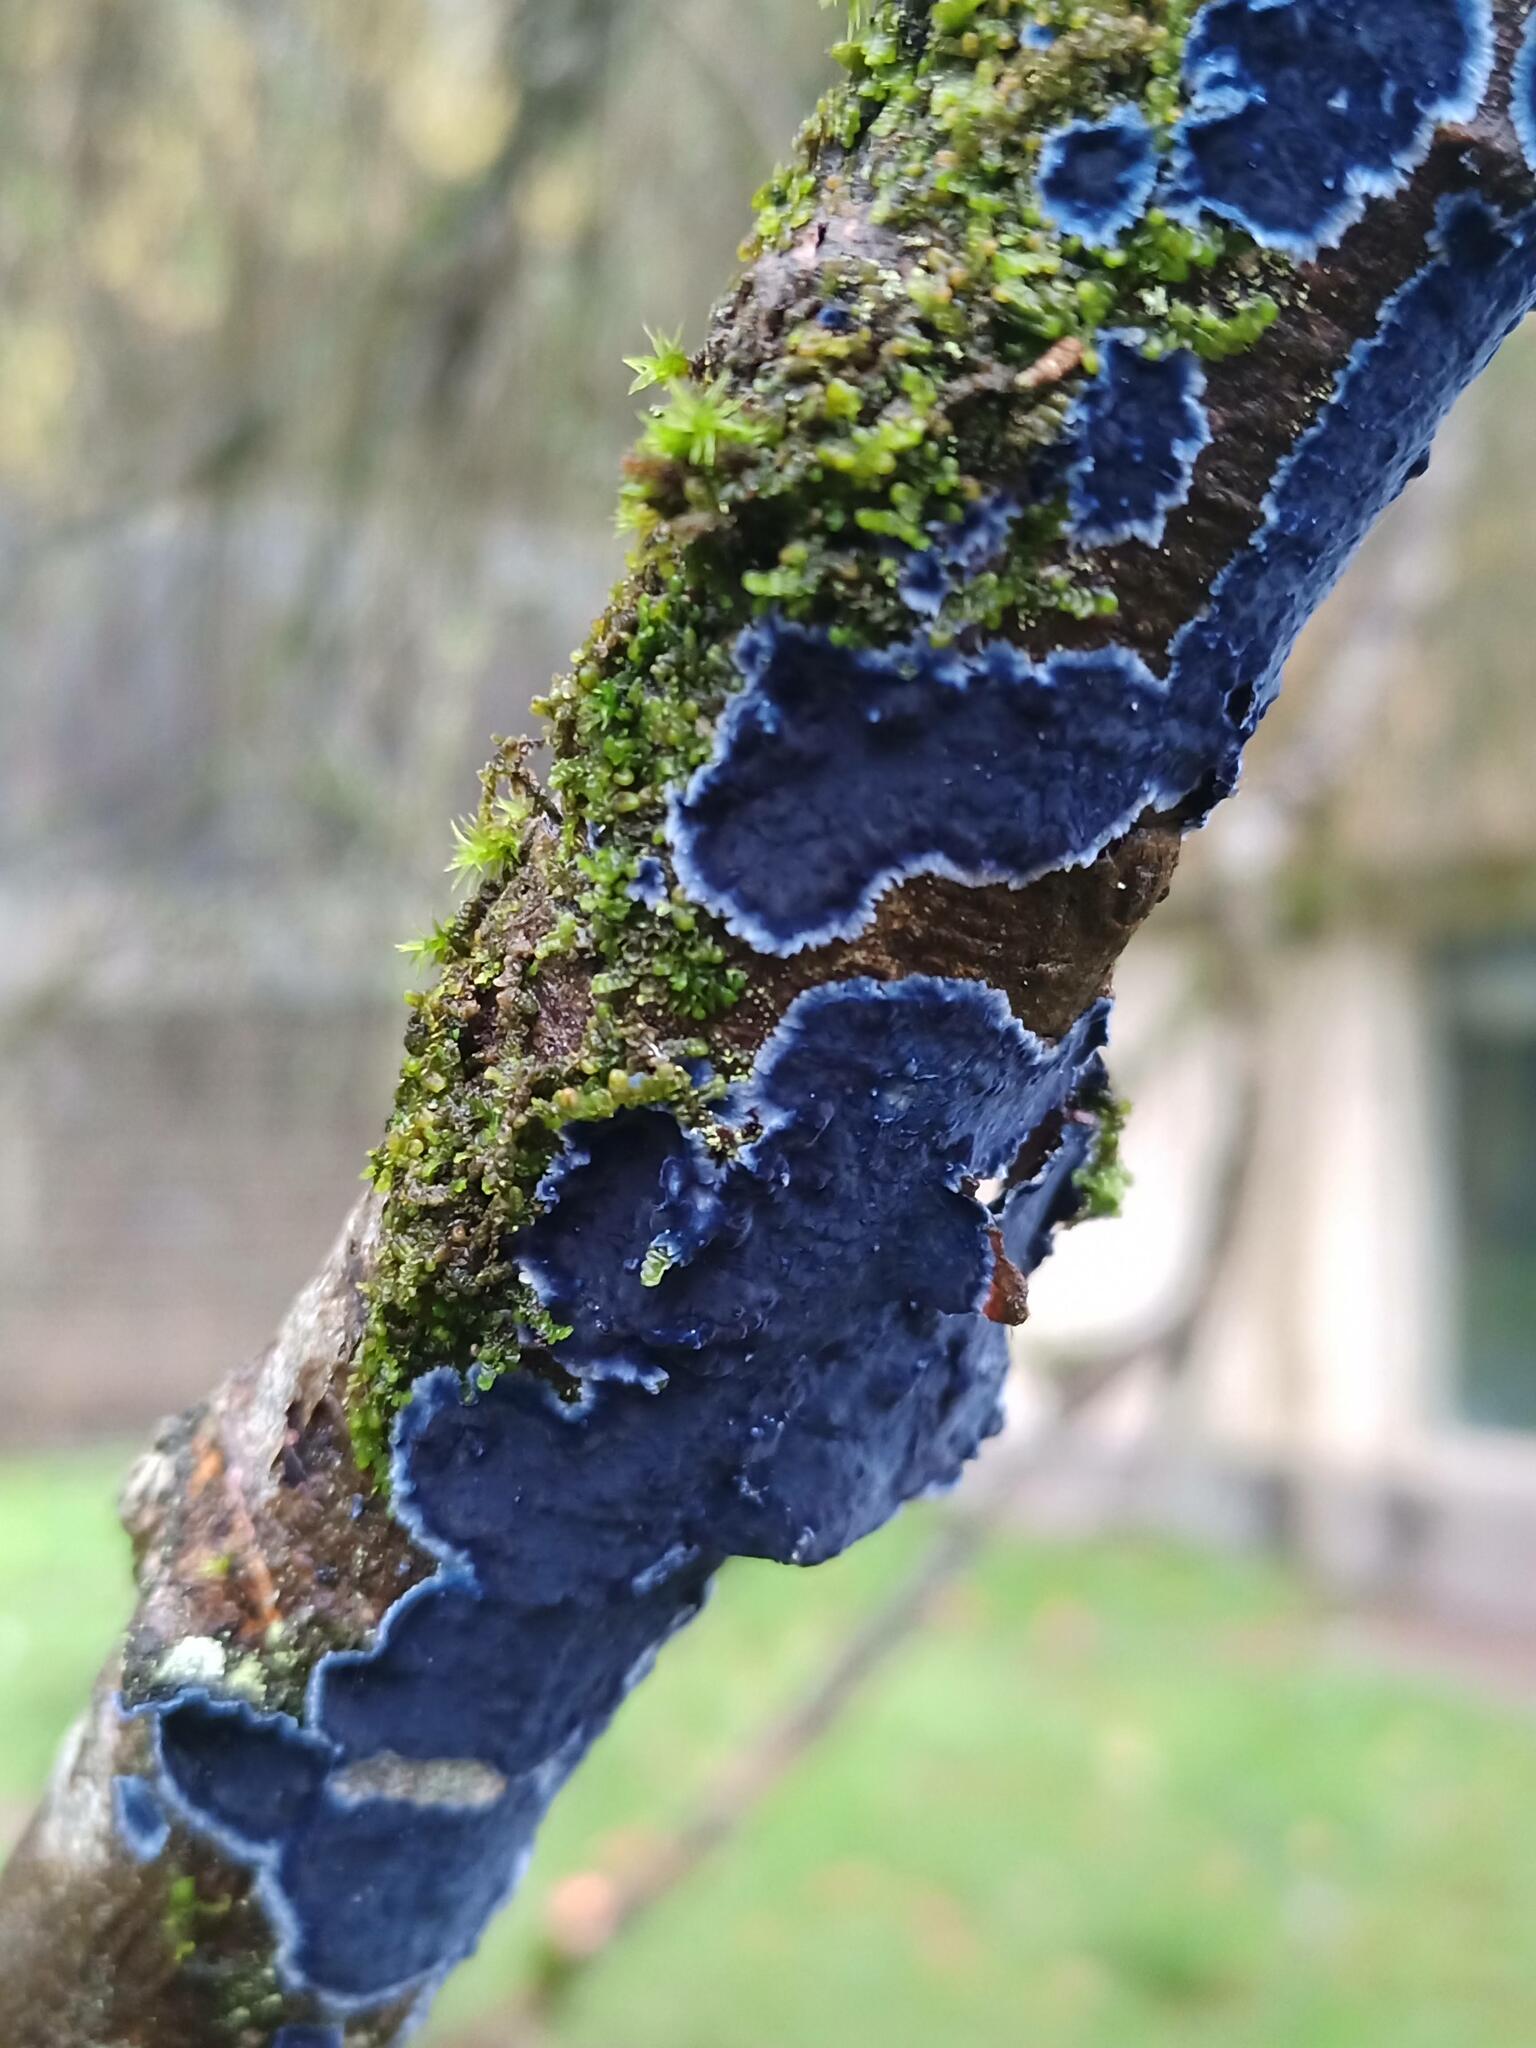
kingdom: Fungi
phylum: Basidiomycota
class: Agaricomycetes
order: Polyporales
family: Phanerochaetaceae
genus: Terana
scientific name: Terana coerulea
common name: Cobalt crust
